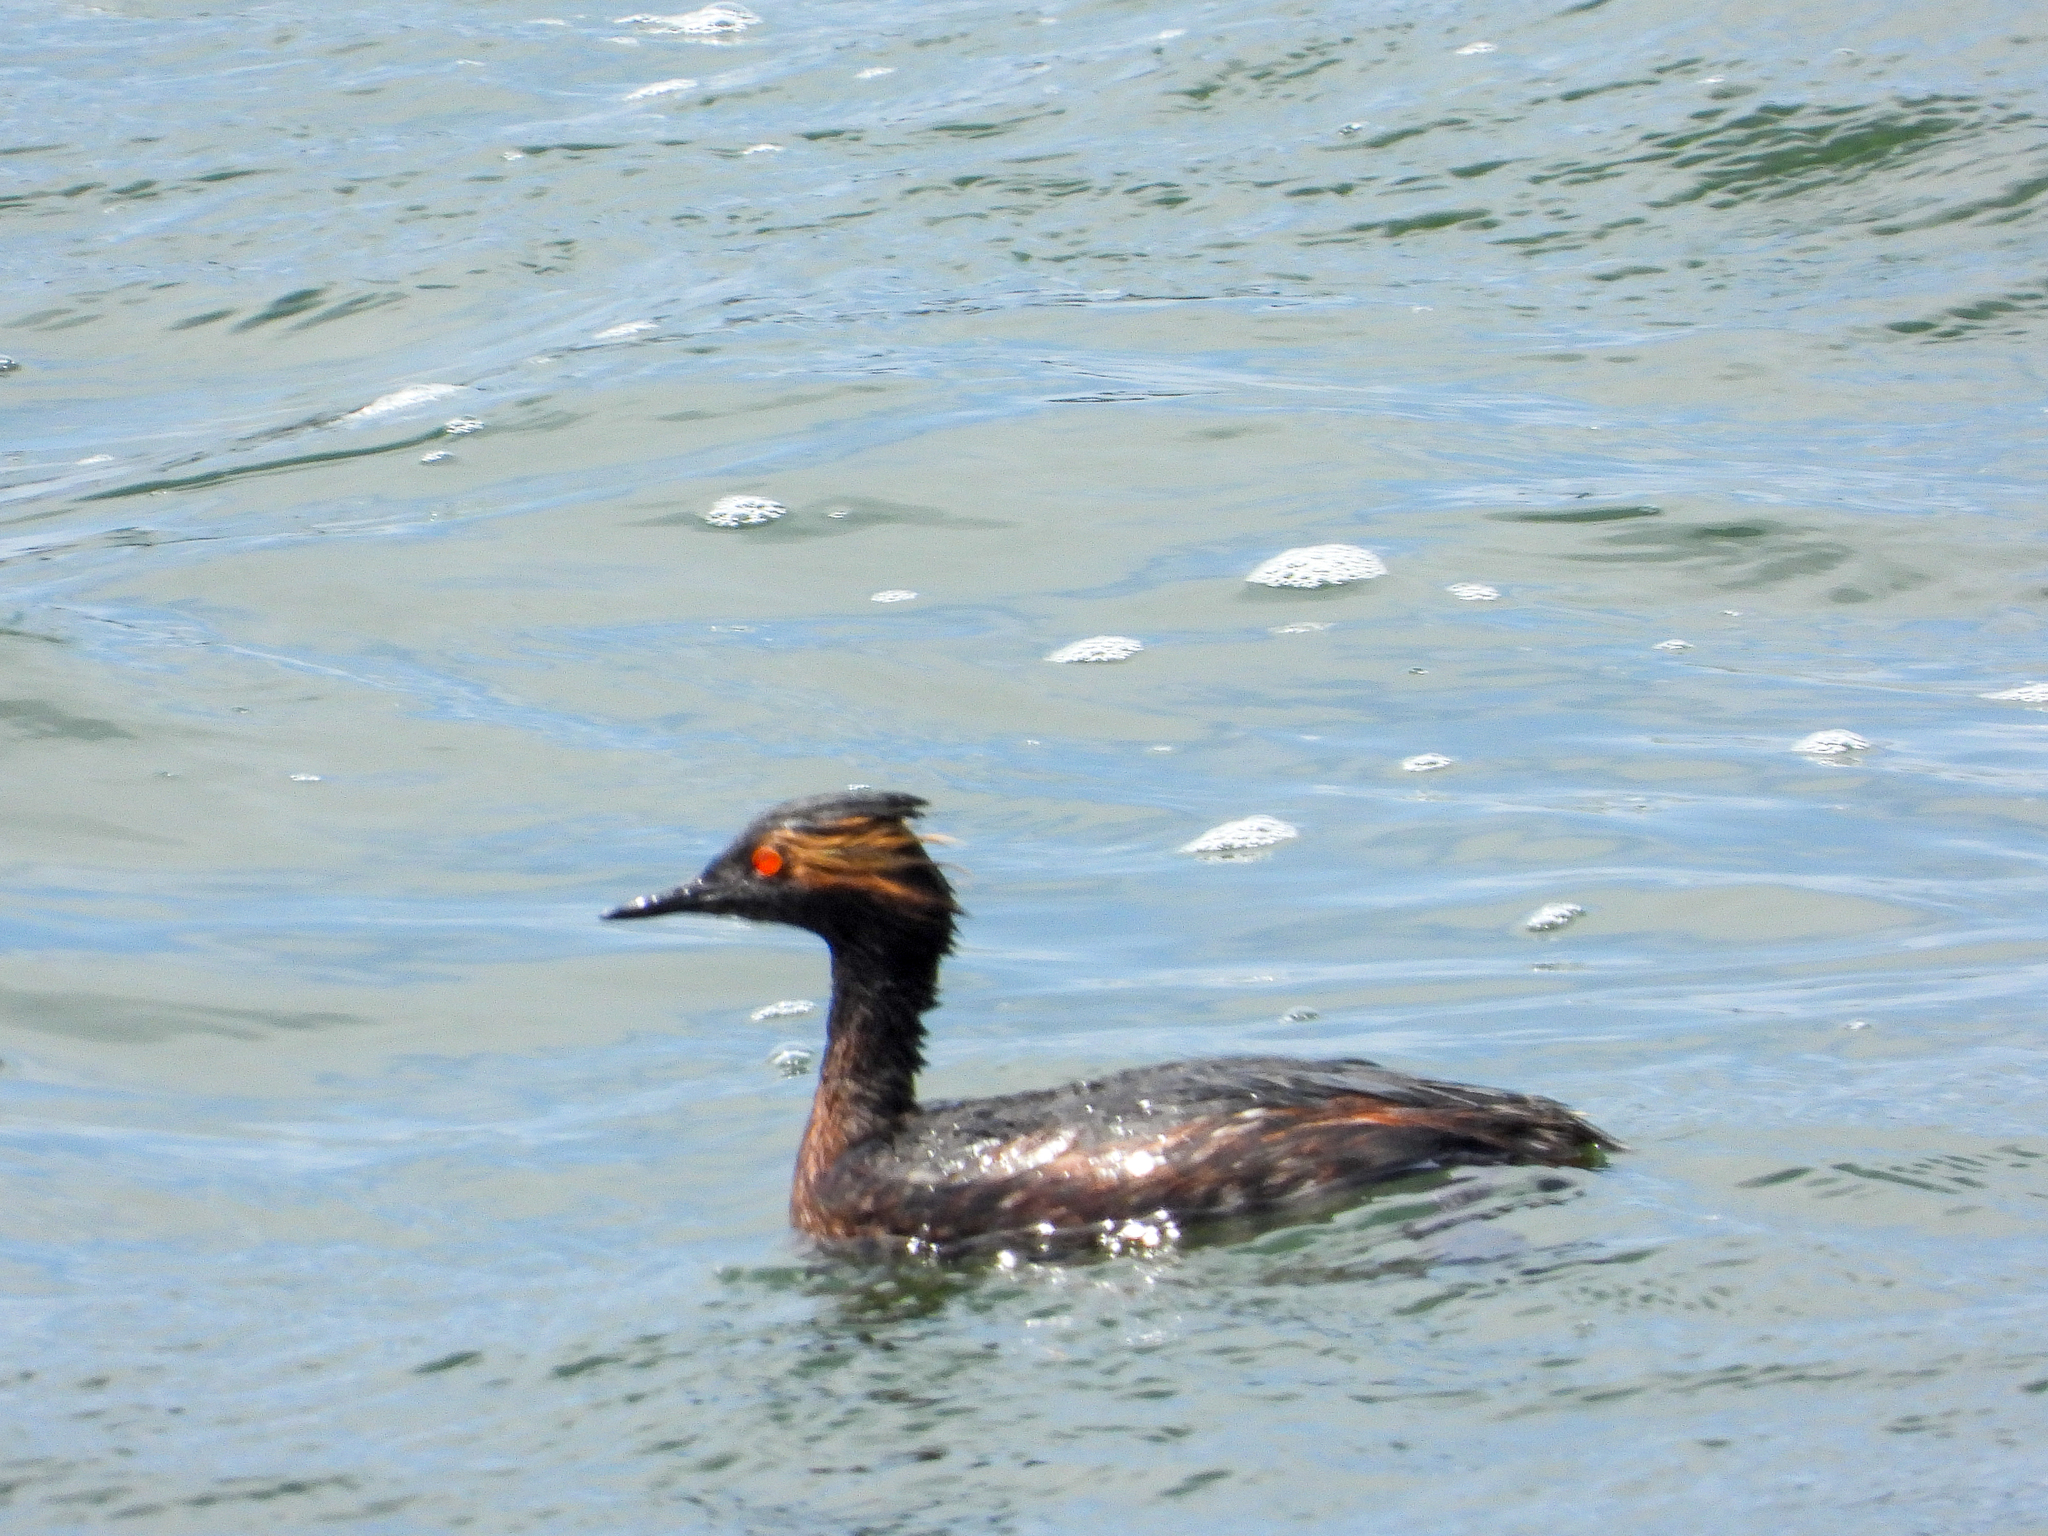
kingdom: Animalia
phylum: Chordata
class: Aves
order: Podicipediformes
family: Podicipedidae
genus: Podiceps
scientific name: Podiceps nigricollis
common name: Black-necked grebe
